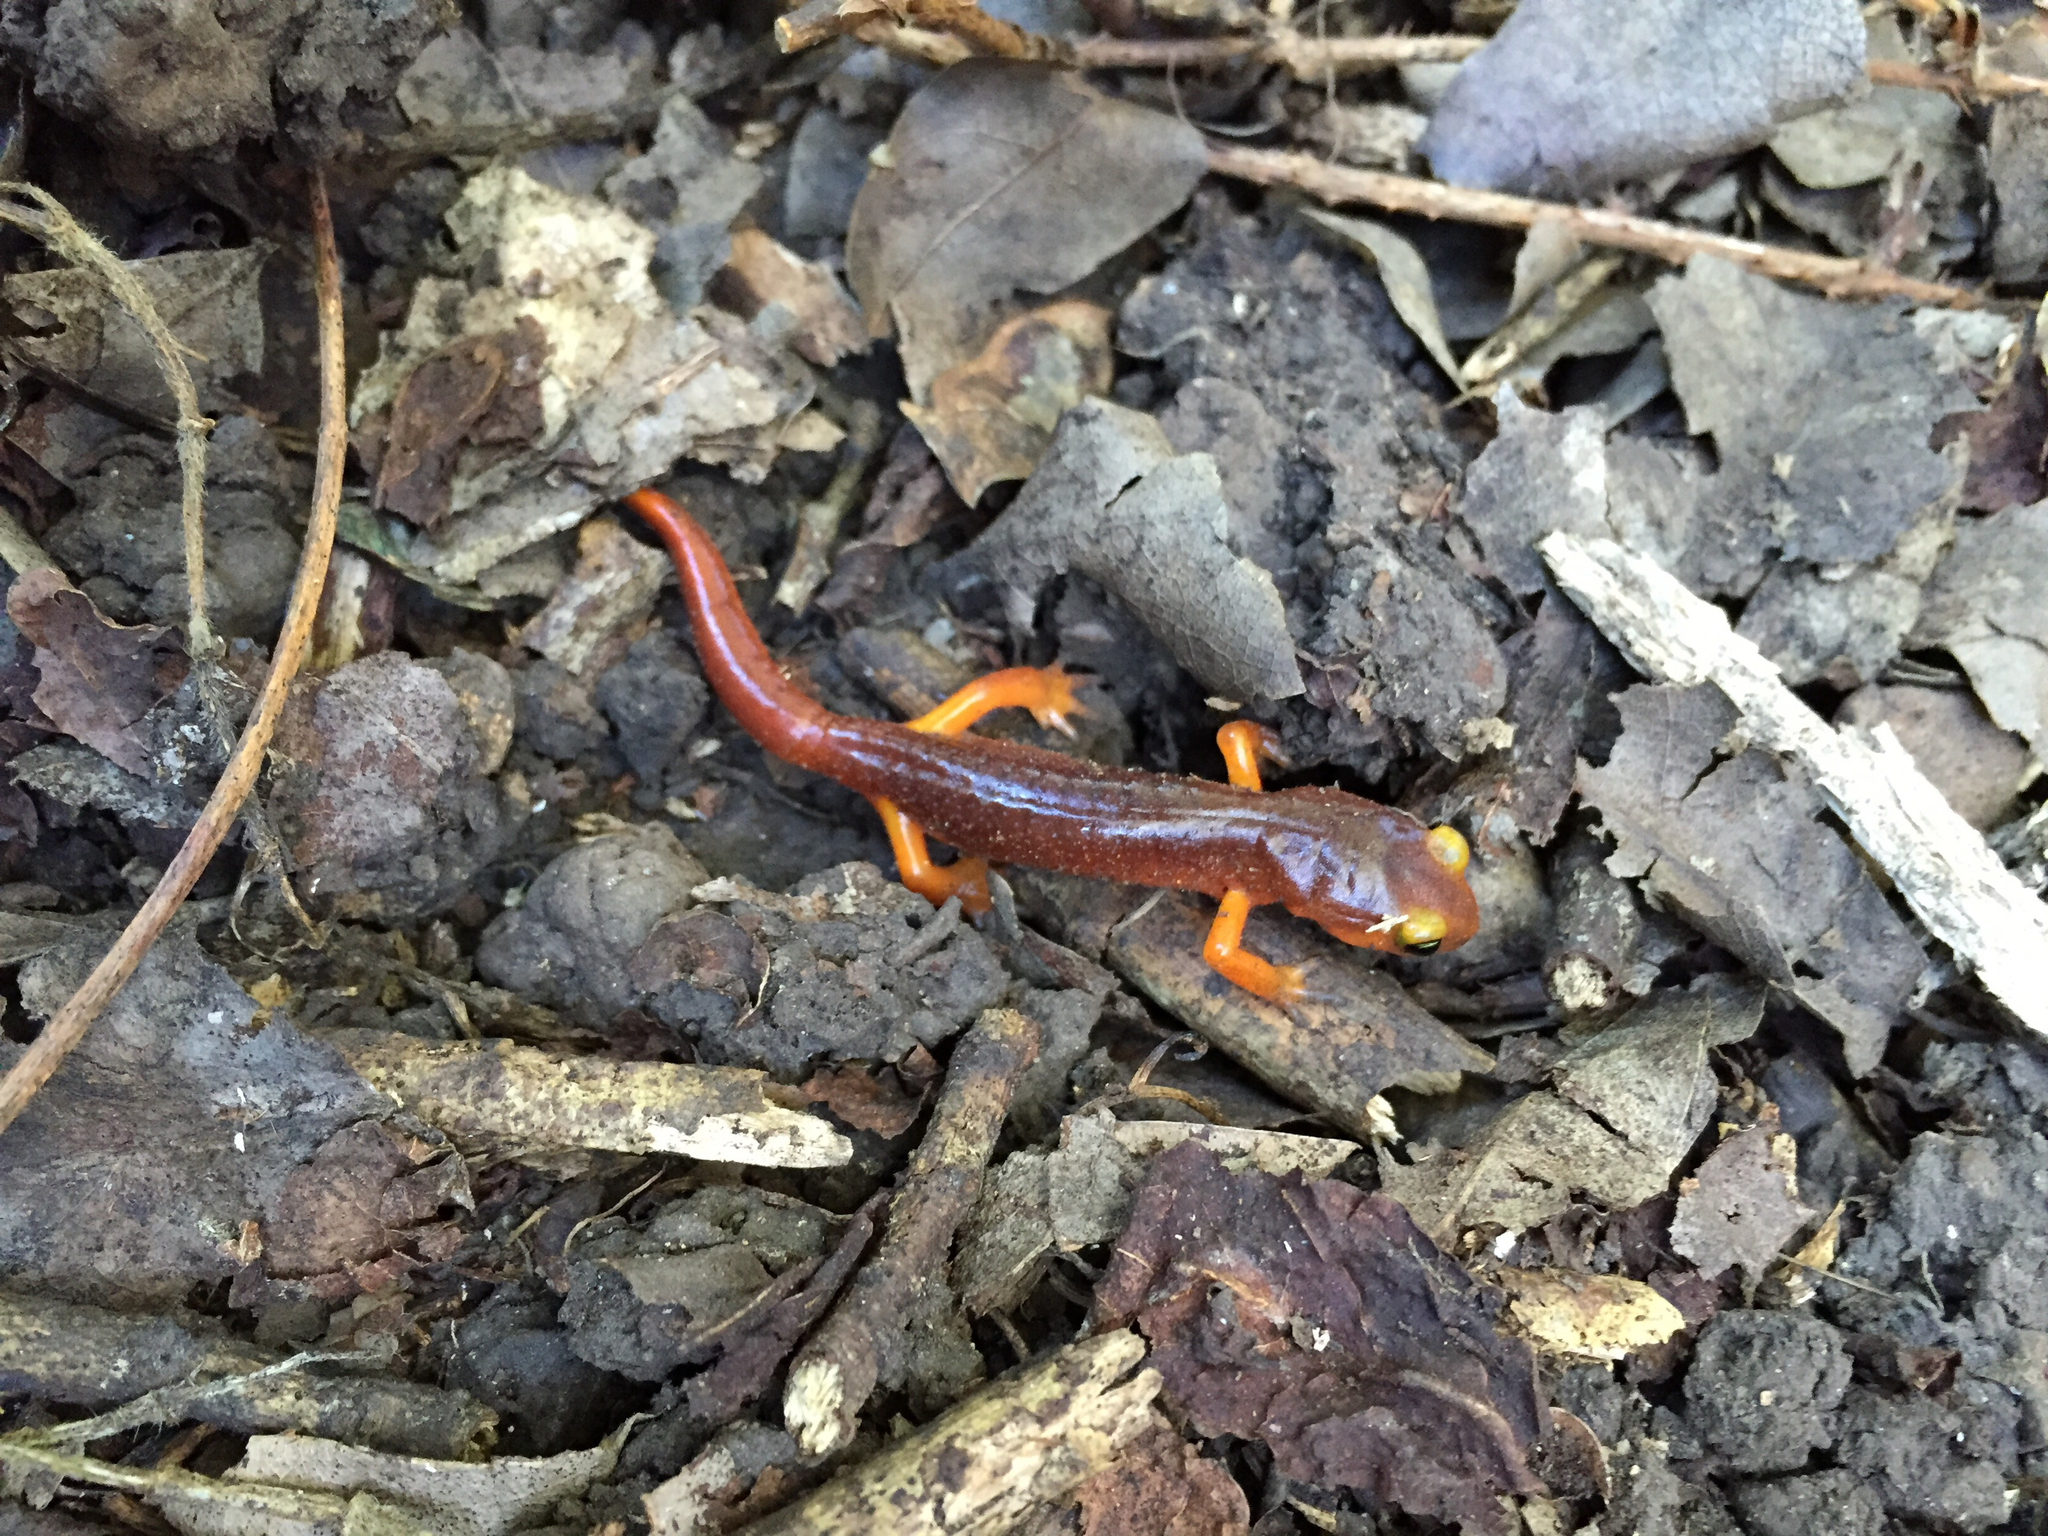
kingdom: Animalia
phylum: Chordata
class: Amphibia
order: Caudata
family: Plethodontidae
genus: Ensatina
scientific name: Ensatina eschscholtzii
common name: Ensatina
